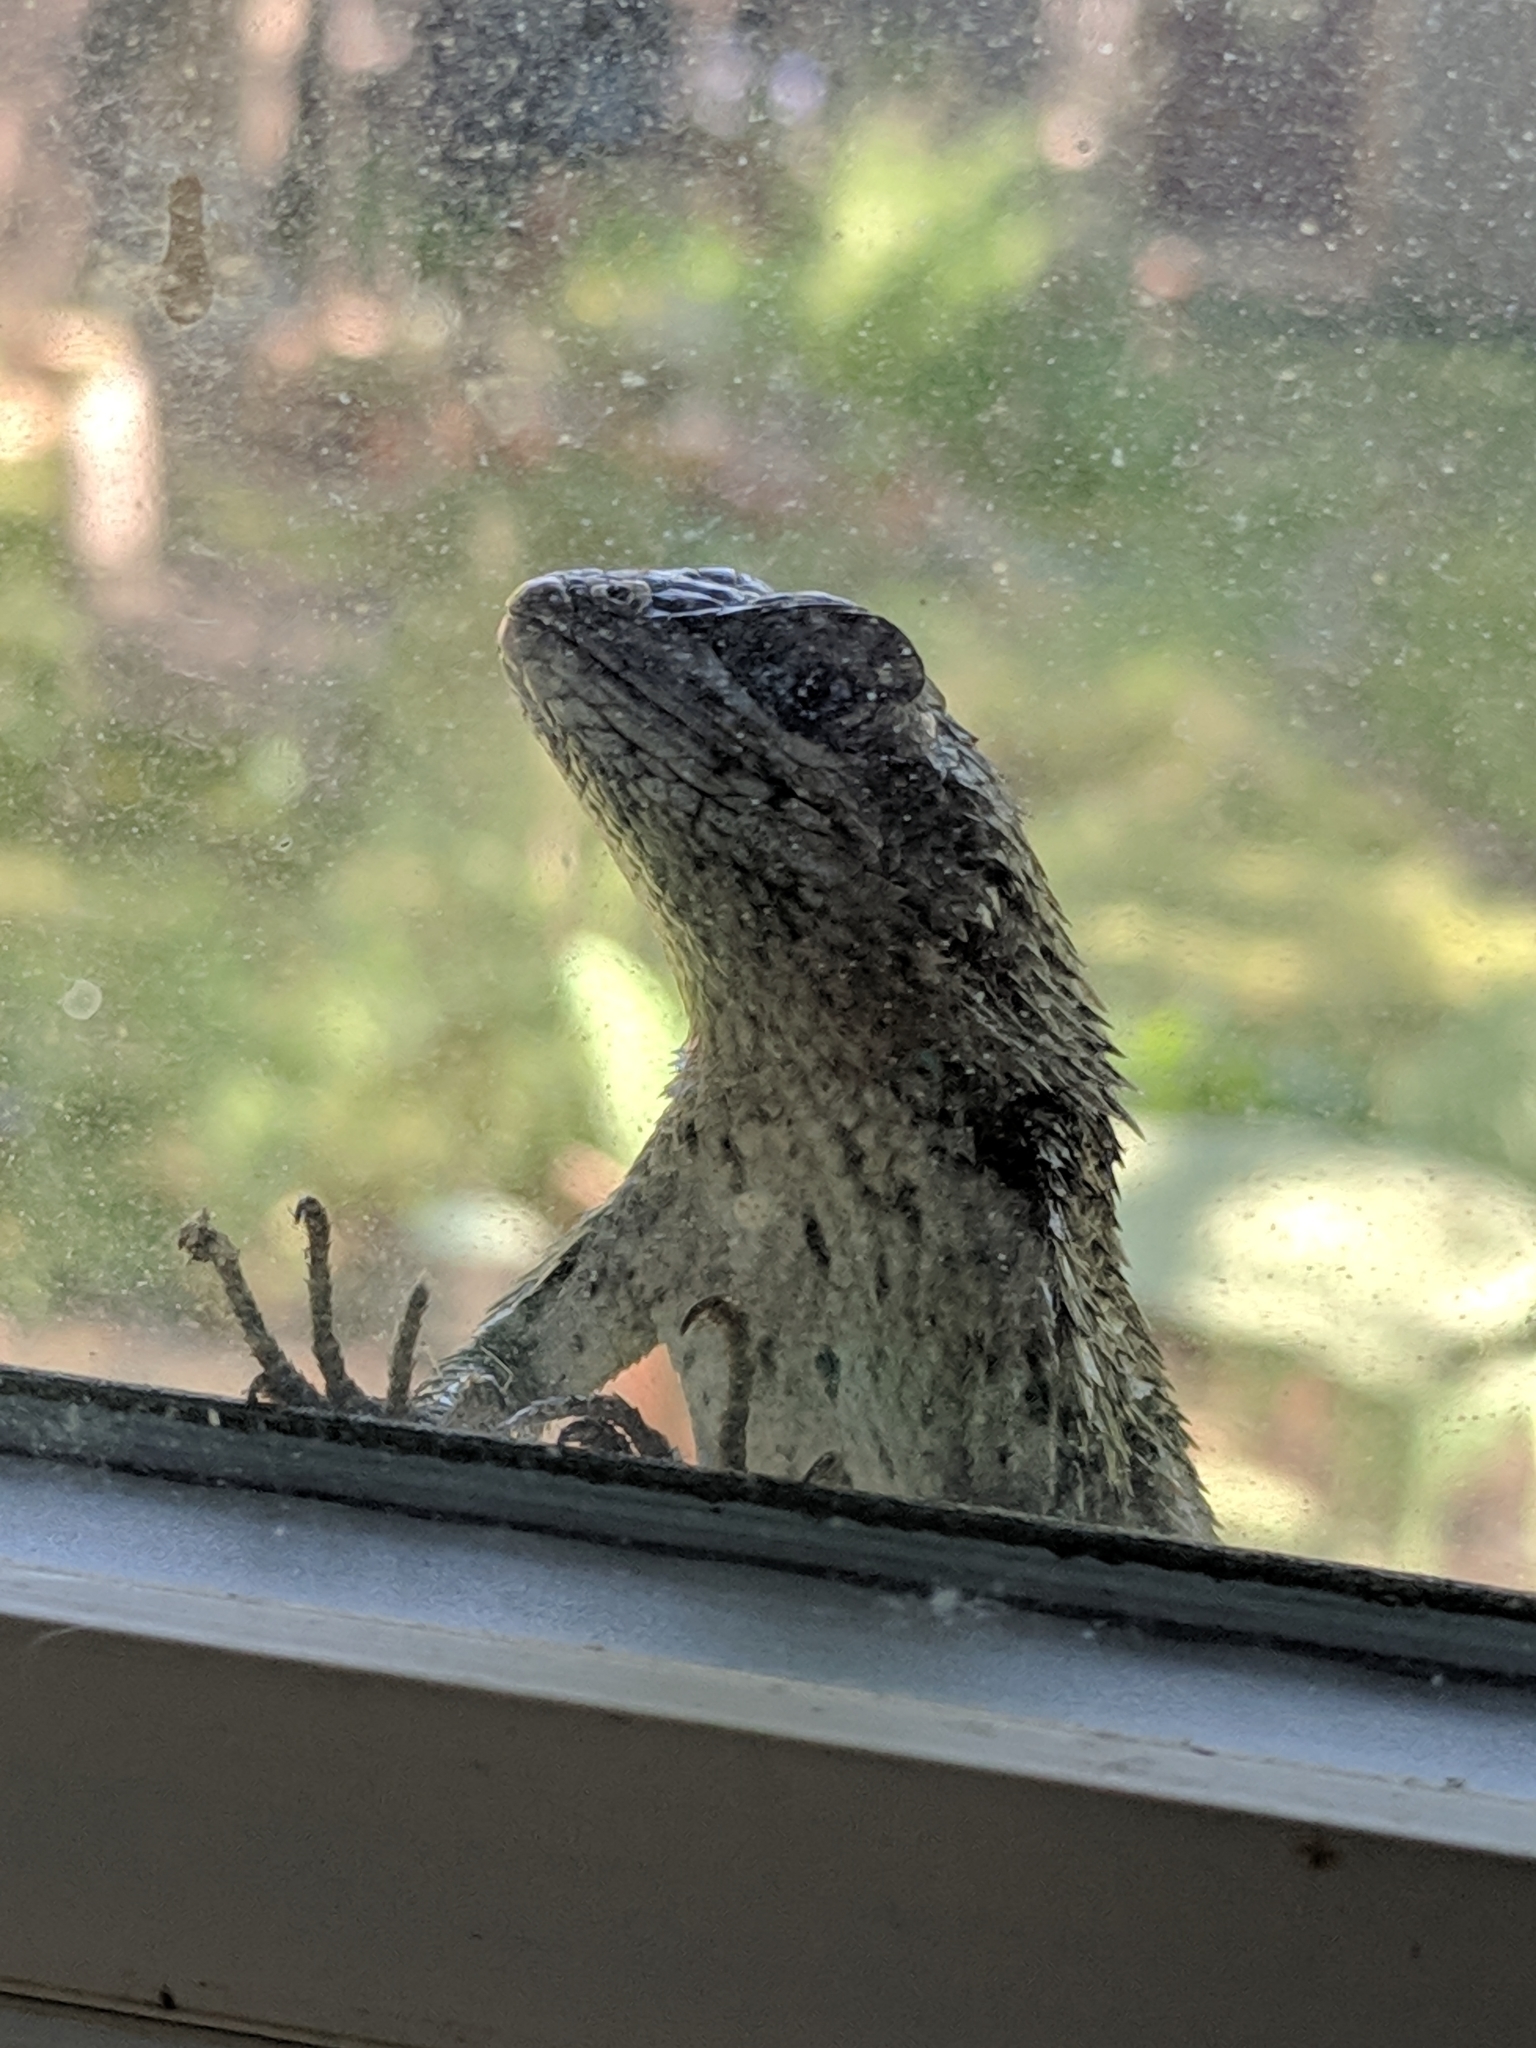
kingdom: Animalia
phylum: Chordata
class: Squamata
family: Phrynosomatidae
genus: Sceloporus
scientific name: Sceloporus olivaceus
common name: Texas spiny lizard
